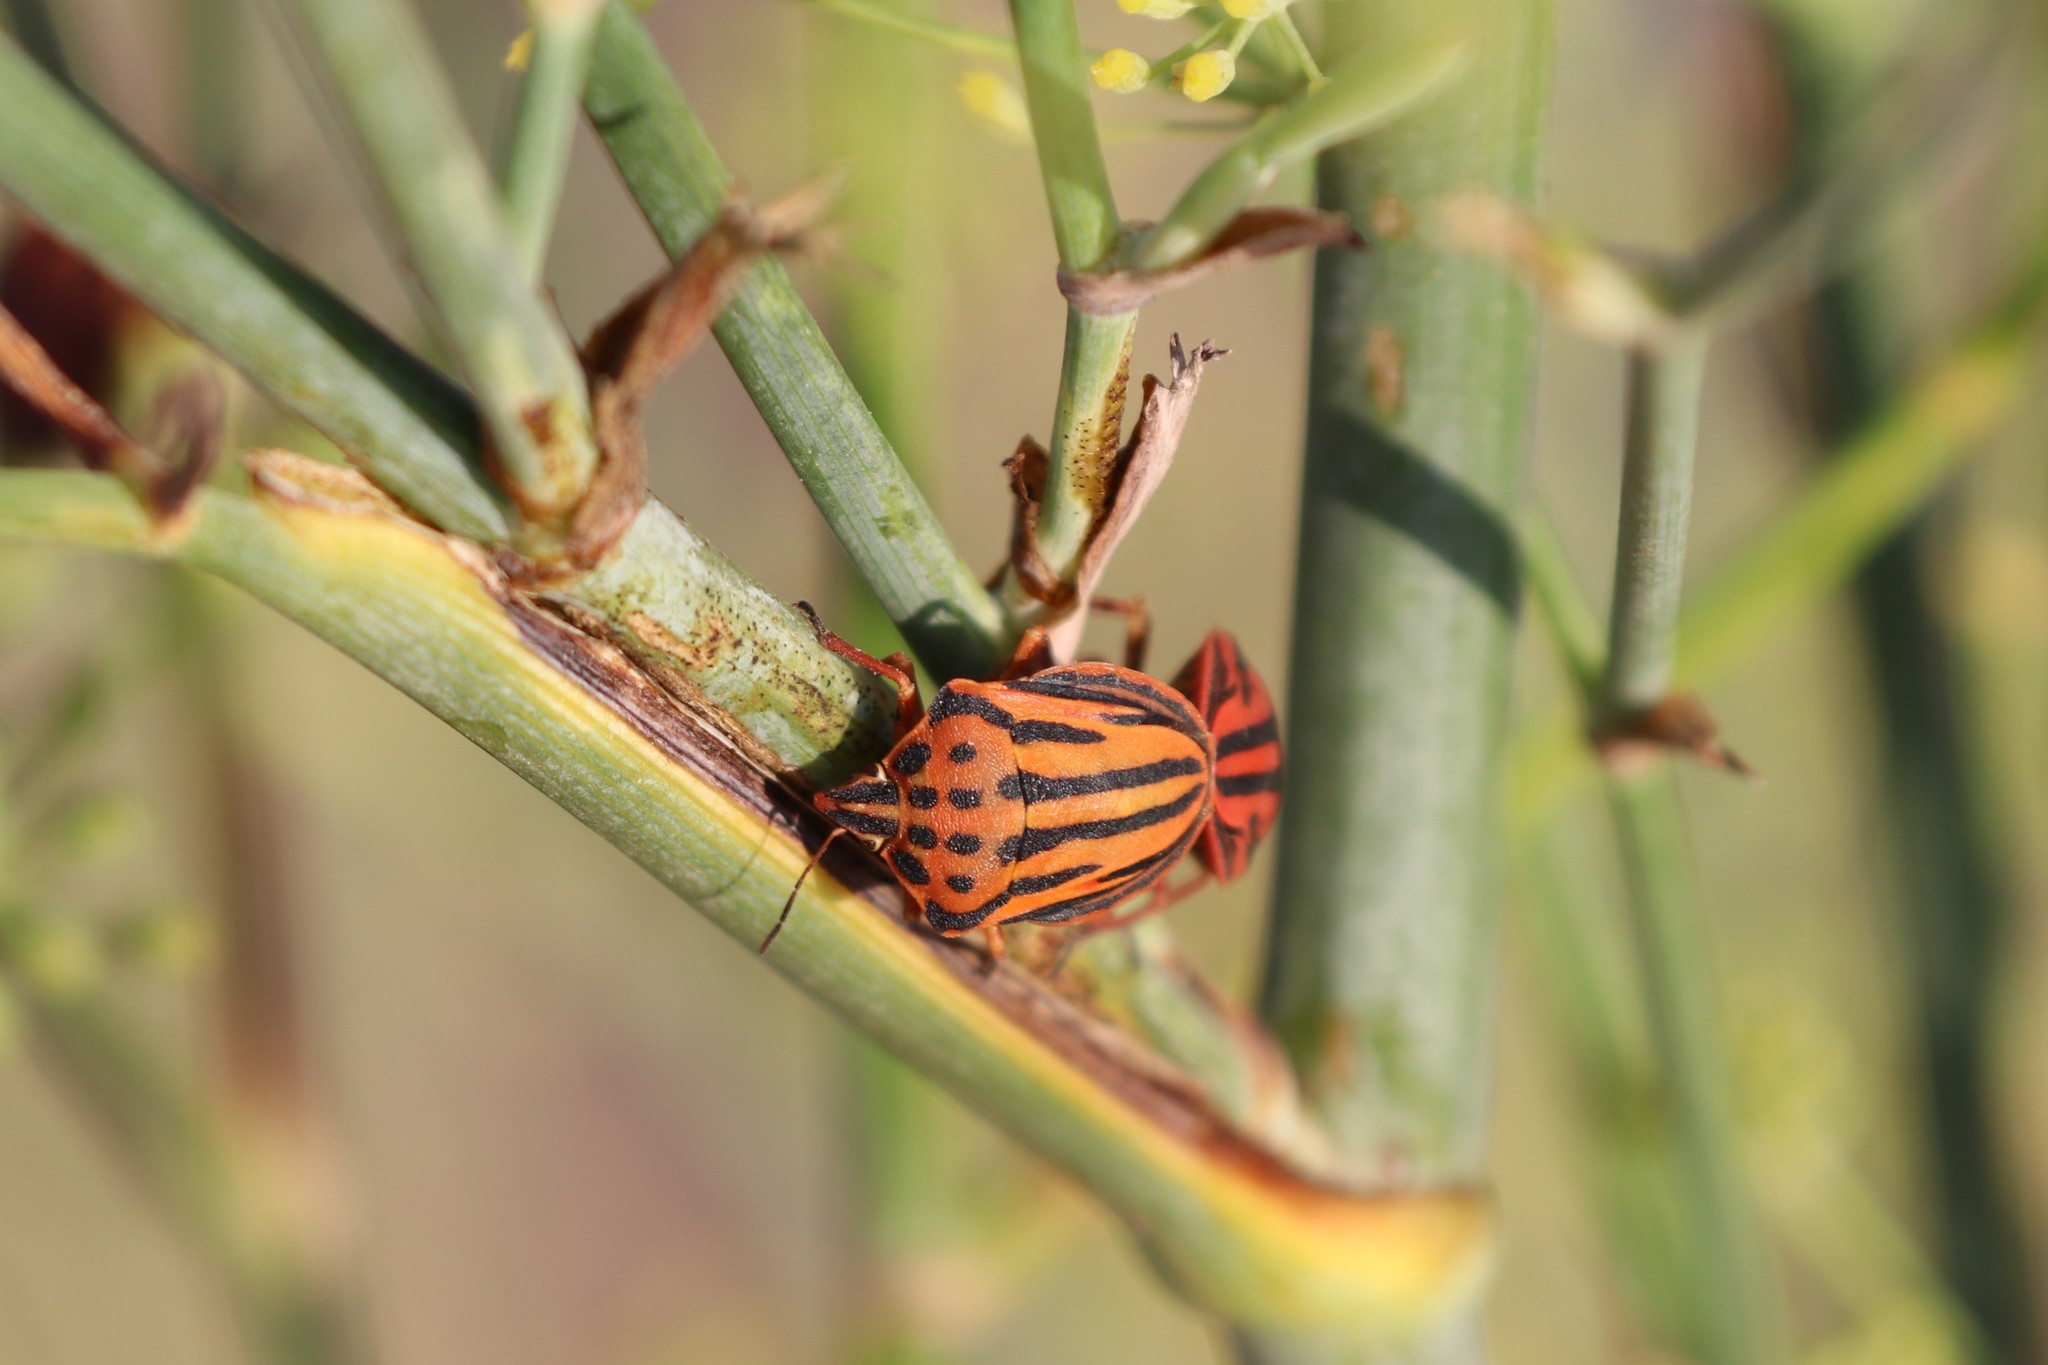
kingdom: Animalia
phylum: Arthropoda
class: Insecta
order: Hemiptera
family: Pentatomidae
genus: Graphosoma
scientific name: Graphosoma semipunctatum
